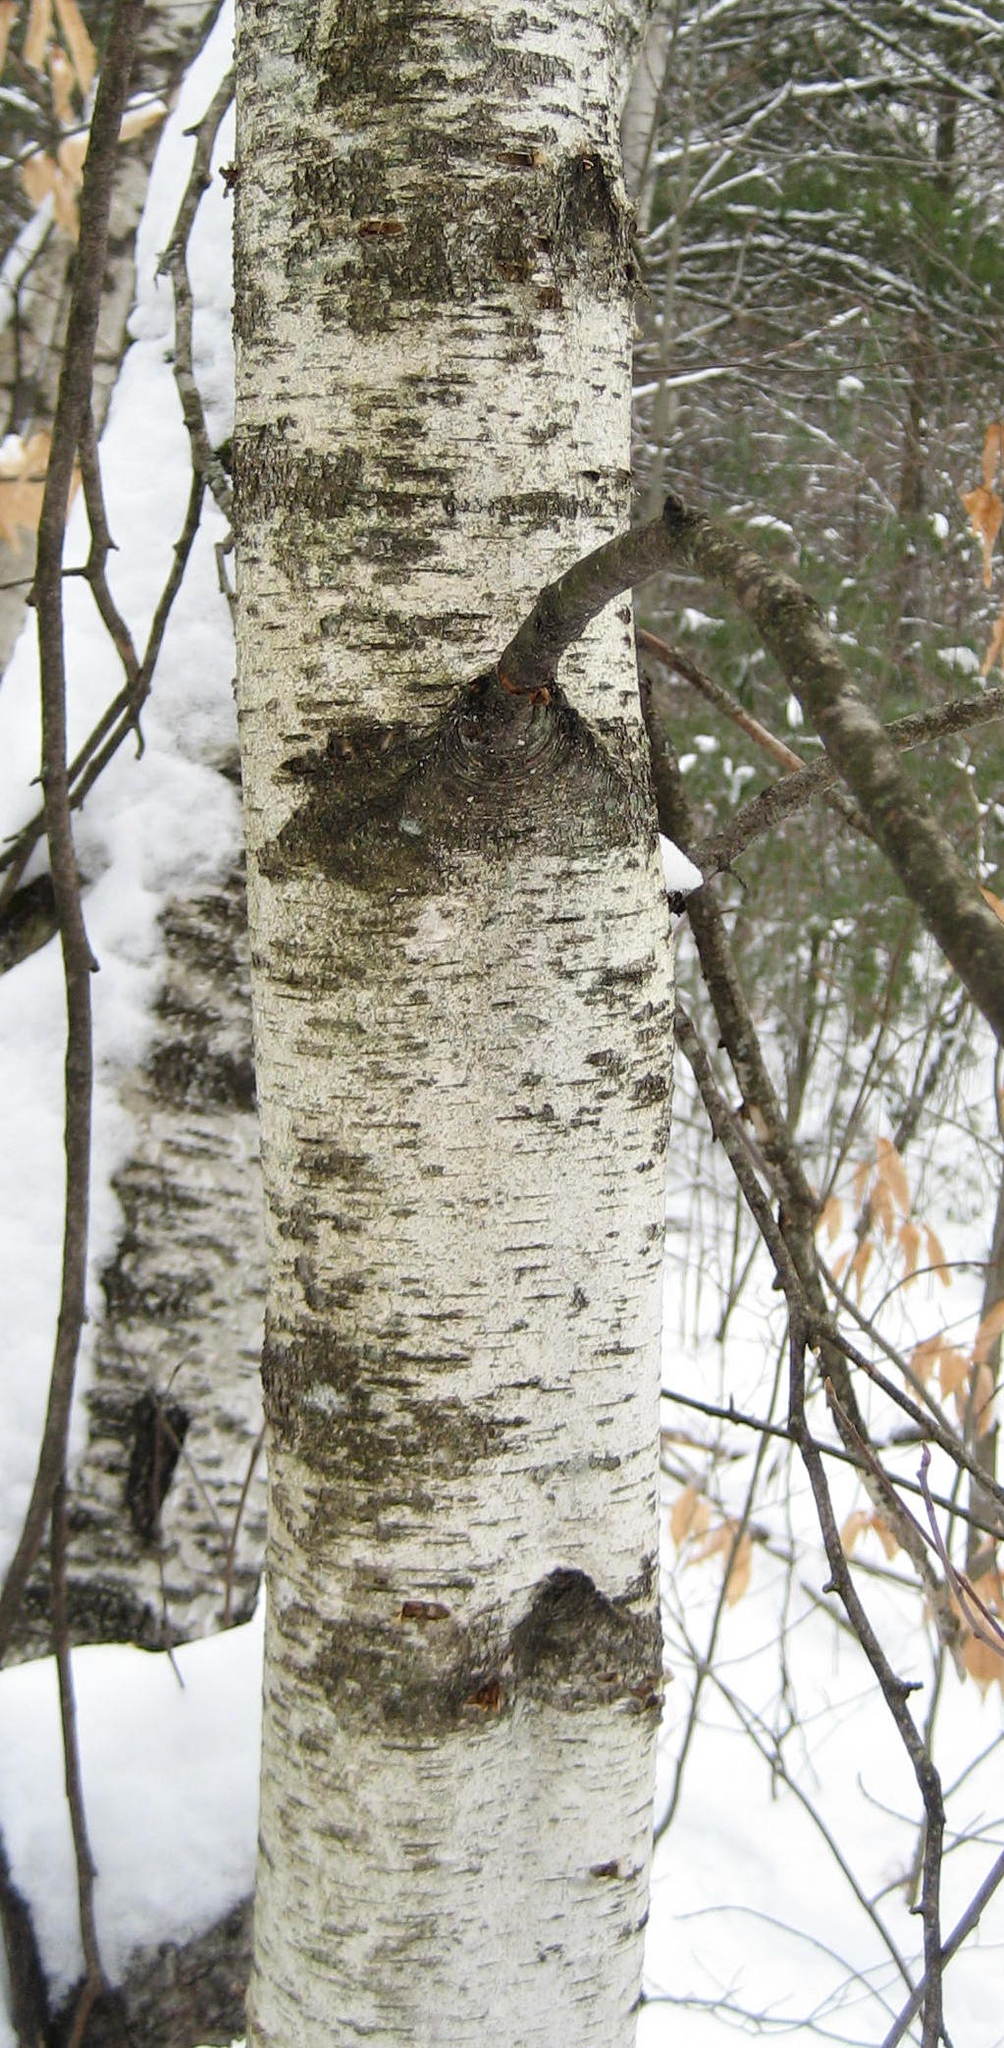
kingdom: Plantae
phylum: Tracheophyta
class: Magnoliopsida
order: Fagales
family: Betulaceae
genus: Betula
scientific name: Betula populifolia
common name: Fire birch
